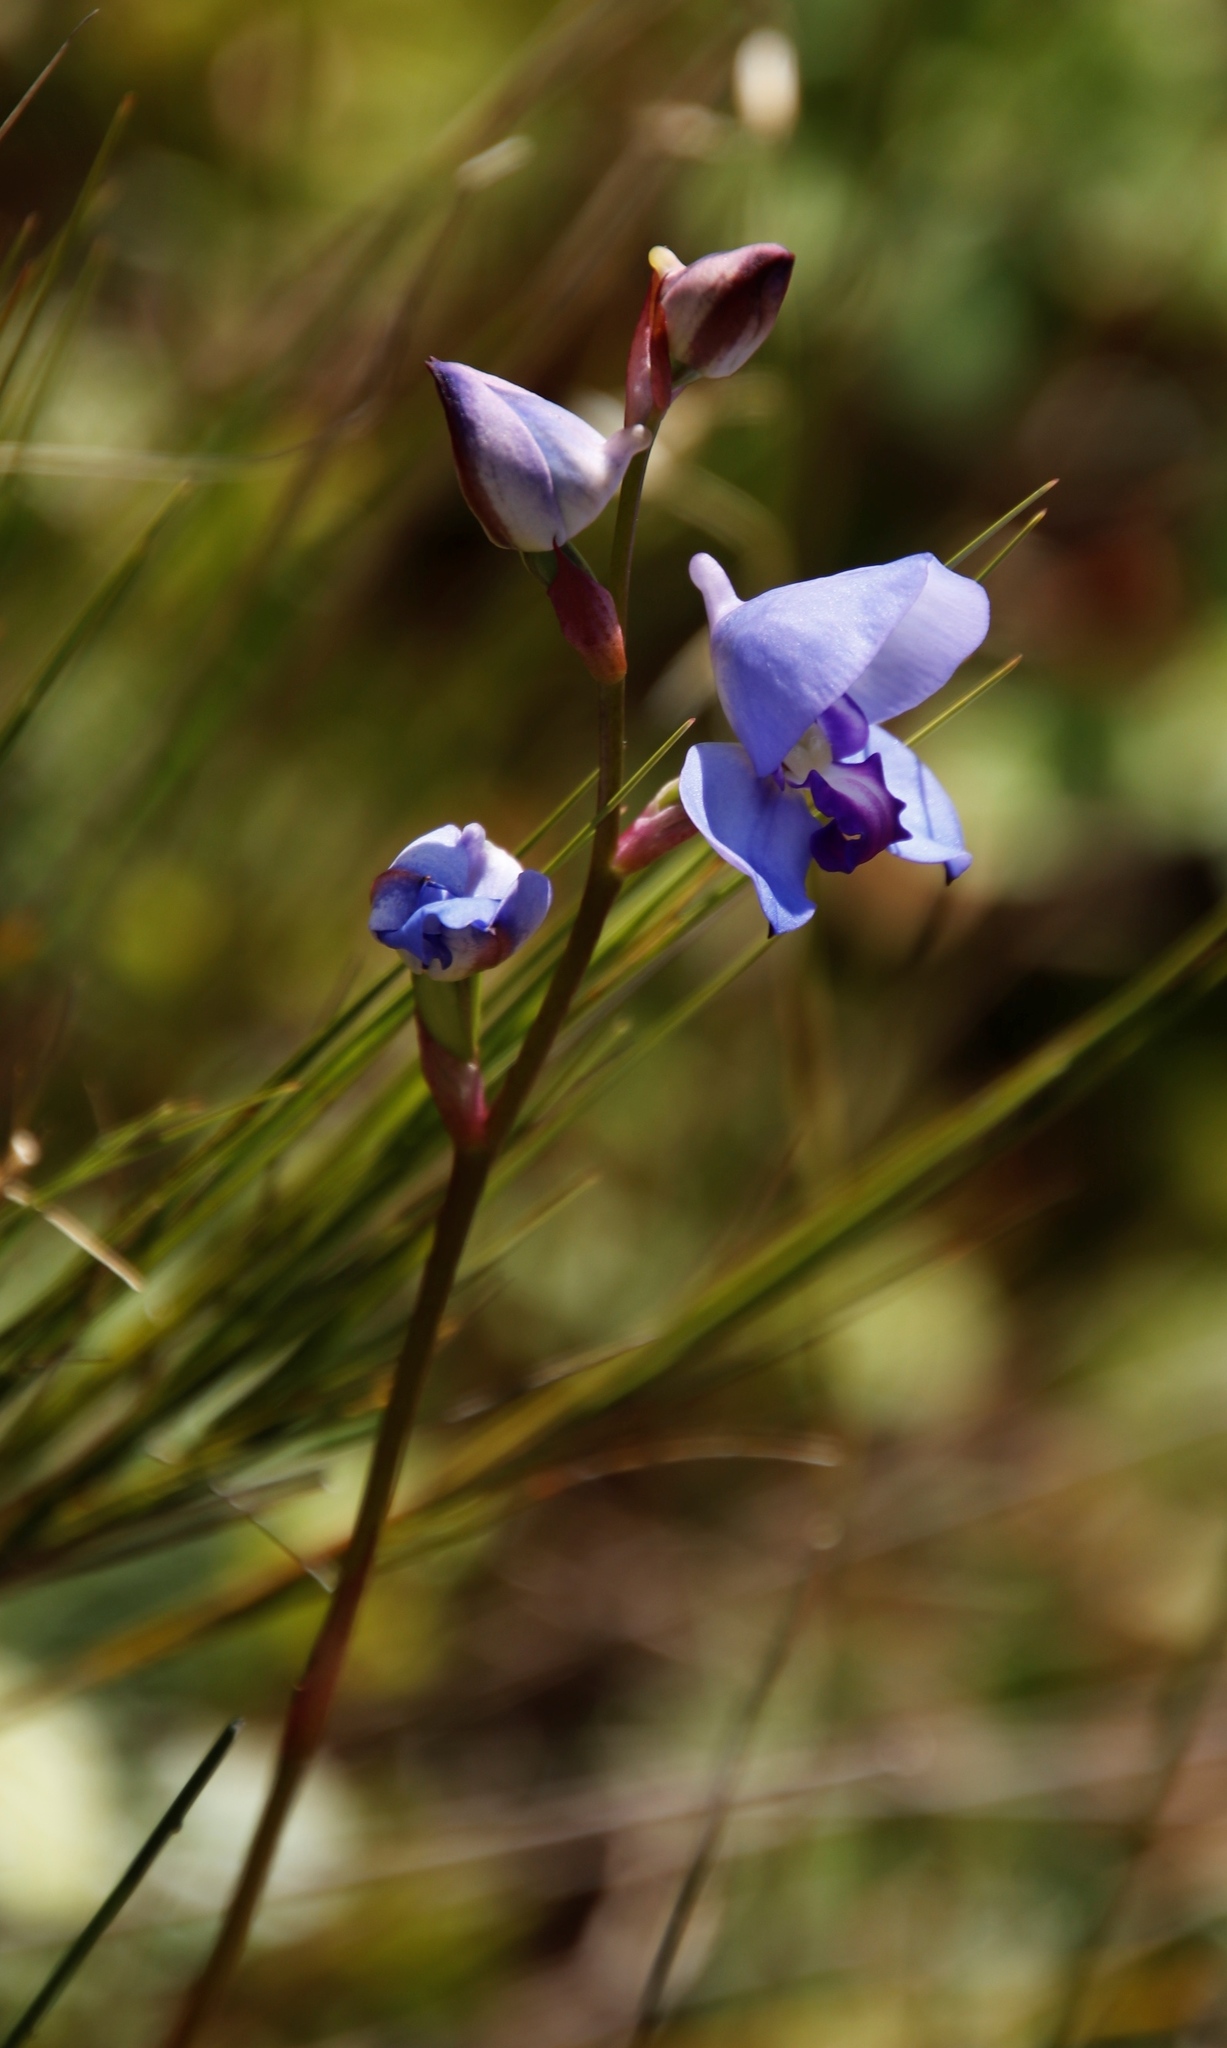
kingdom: Plantae
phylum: Tracheophyta
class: Liliopsida
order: Asparagales
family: Orchidaceae
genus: Disa
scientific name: Disa graminifolia
